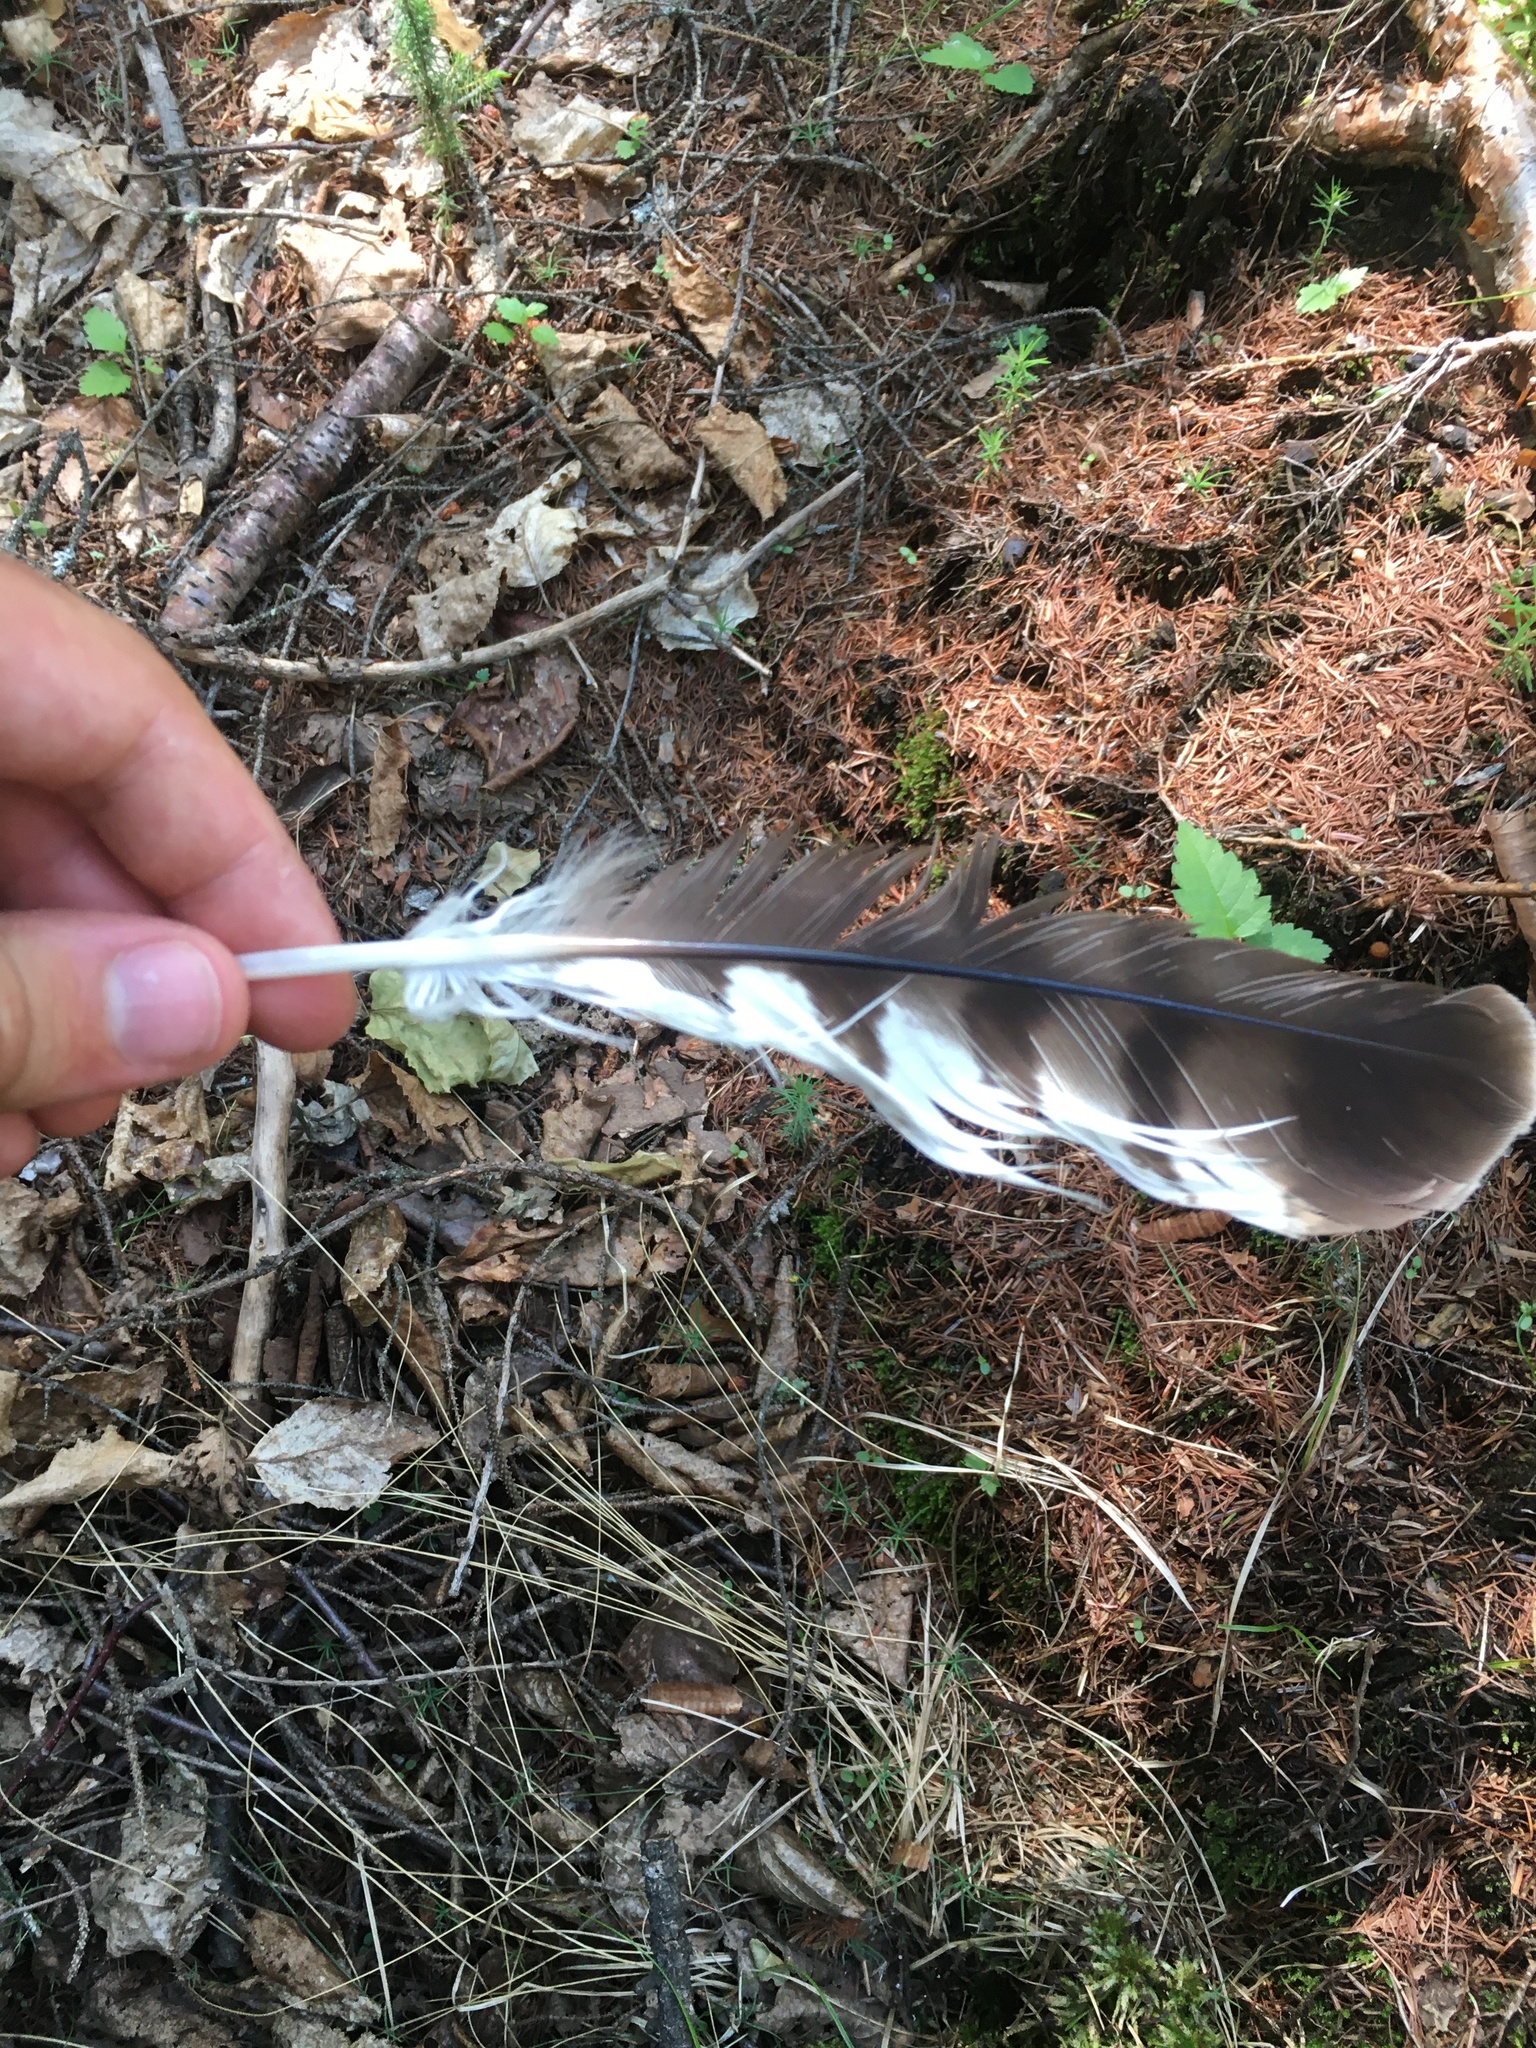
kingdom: Animalia
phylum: Chordata
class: Aves
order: Accipitriformes
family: Accipitridae
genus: Buteo
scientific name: Buteo platypterus
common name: Broad-winged hawk
